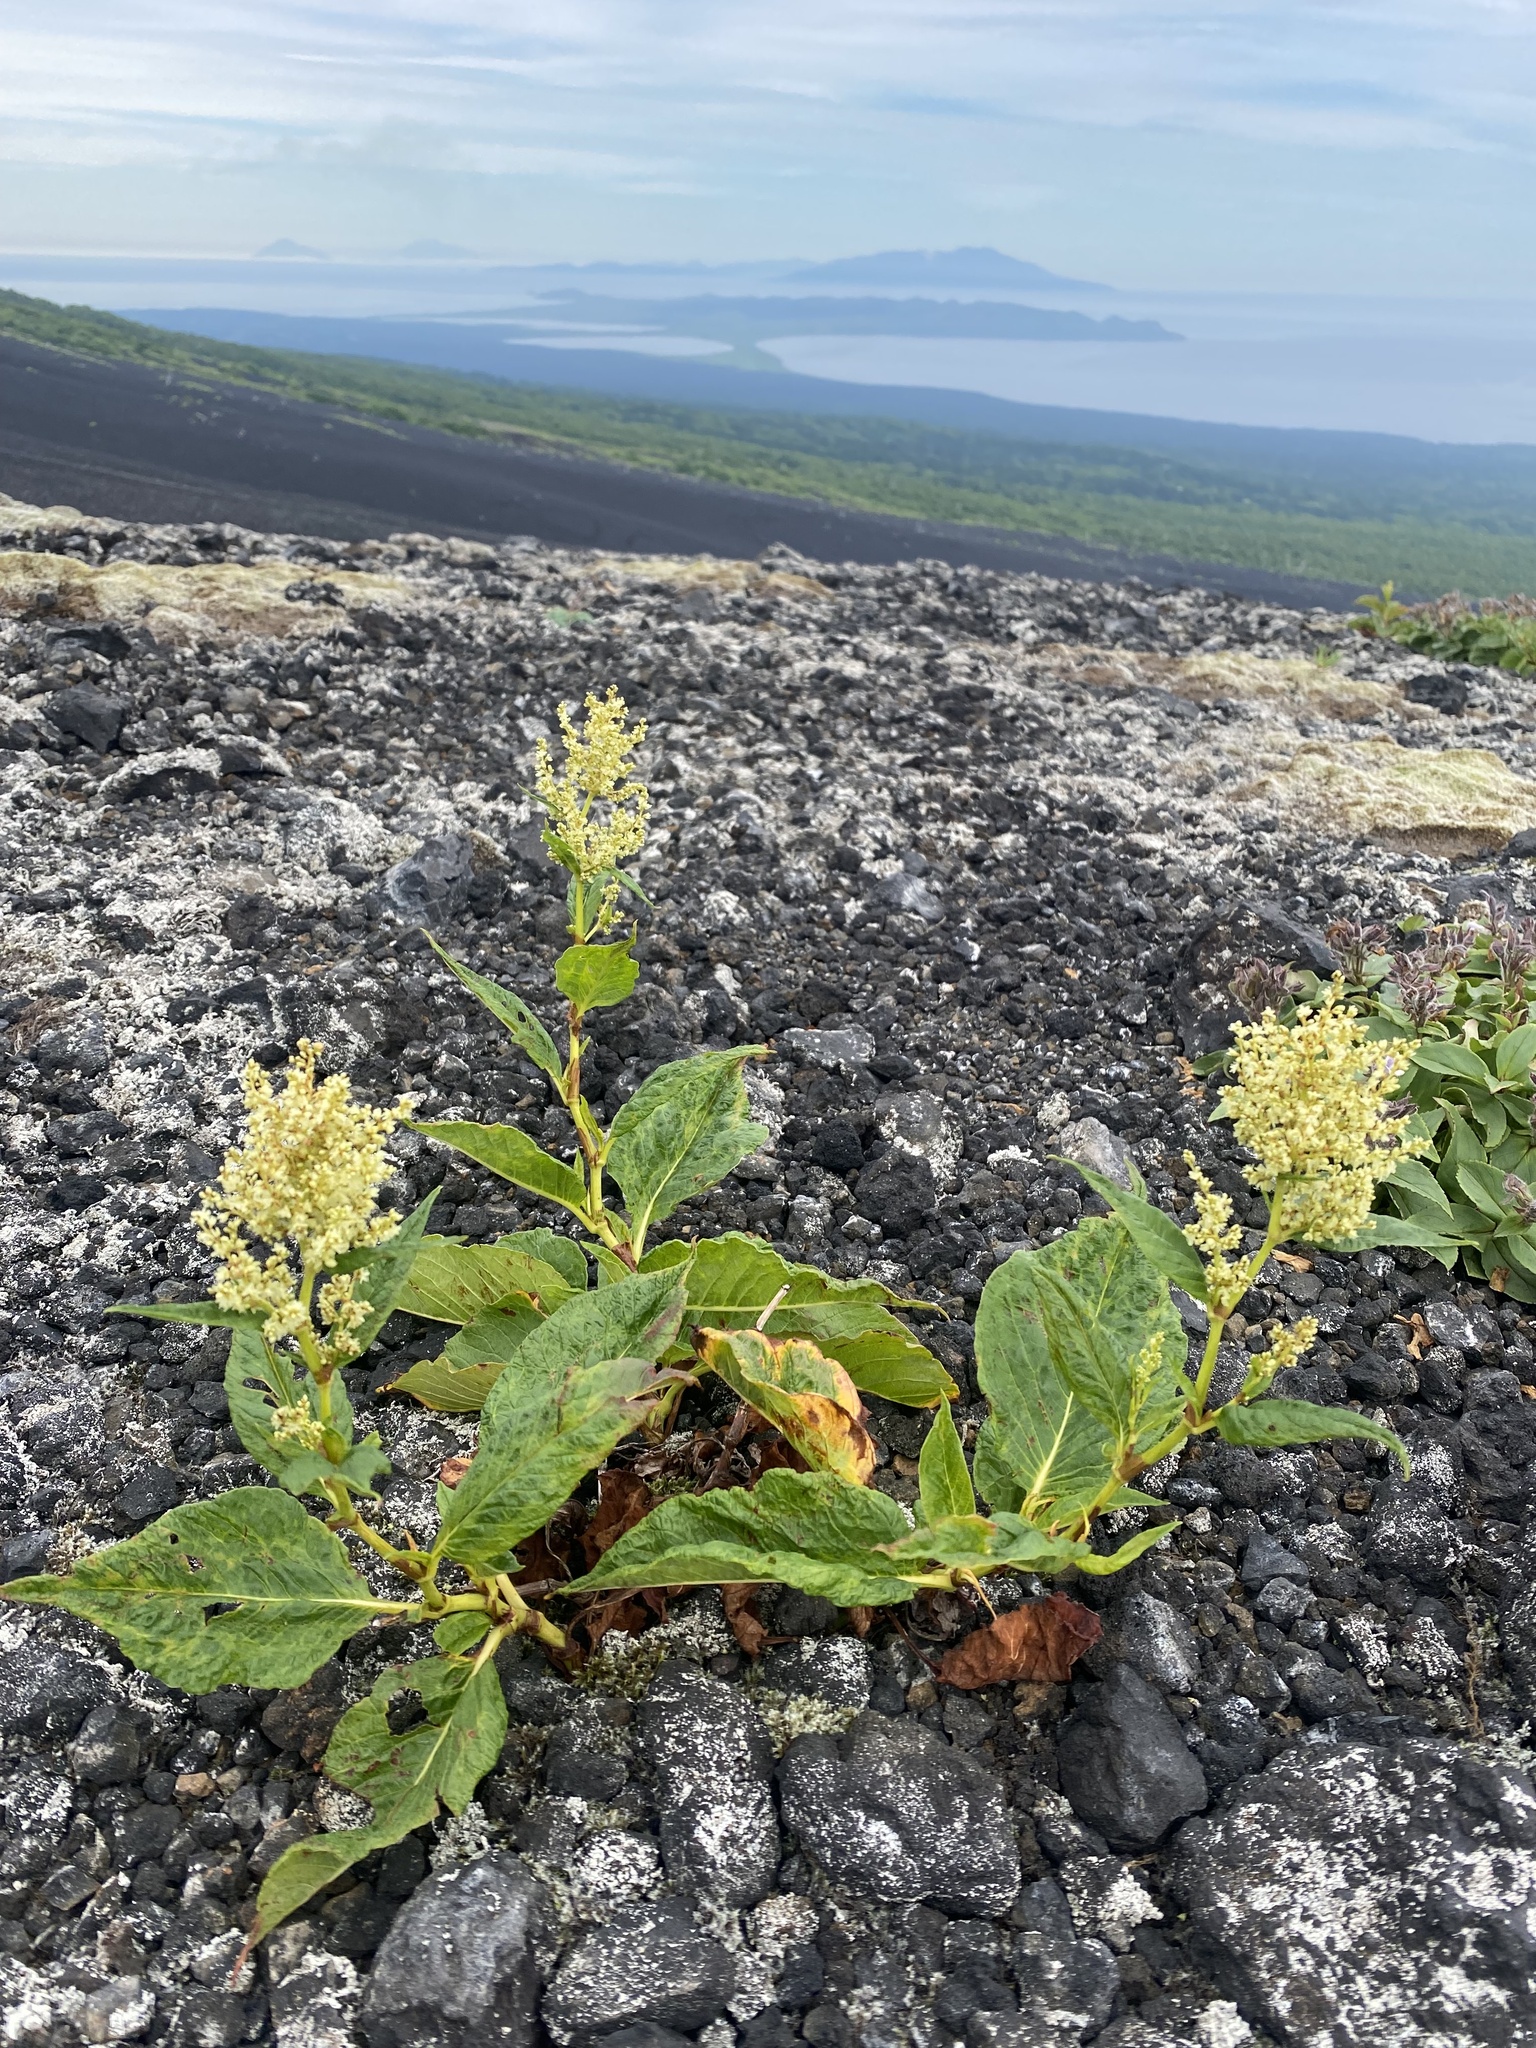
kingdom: Plantae
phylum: Tracheophyta
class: Magnoliopsida
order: Caryophyllales
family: Polygonaceae
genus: Koenigia
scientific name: Koenigia weyrichii
